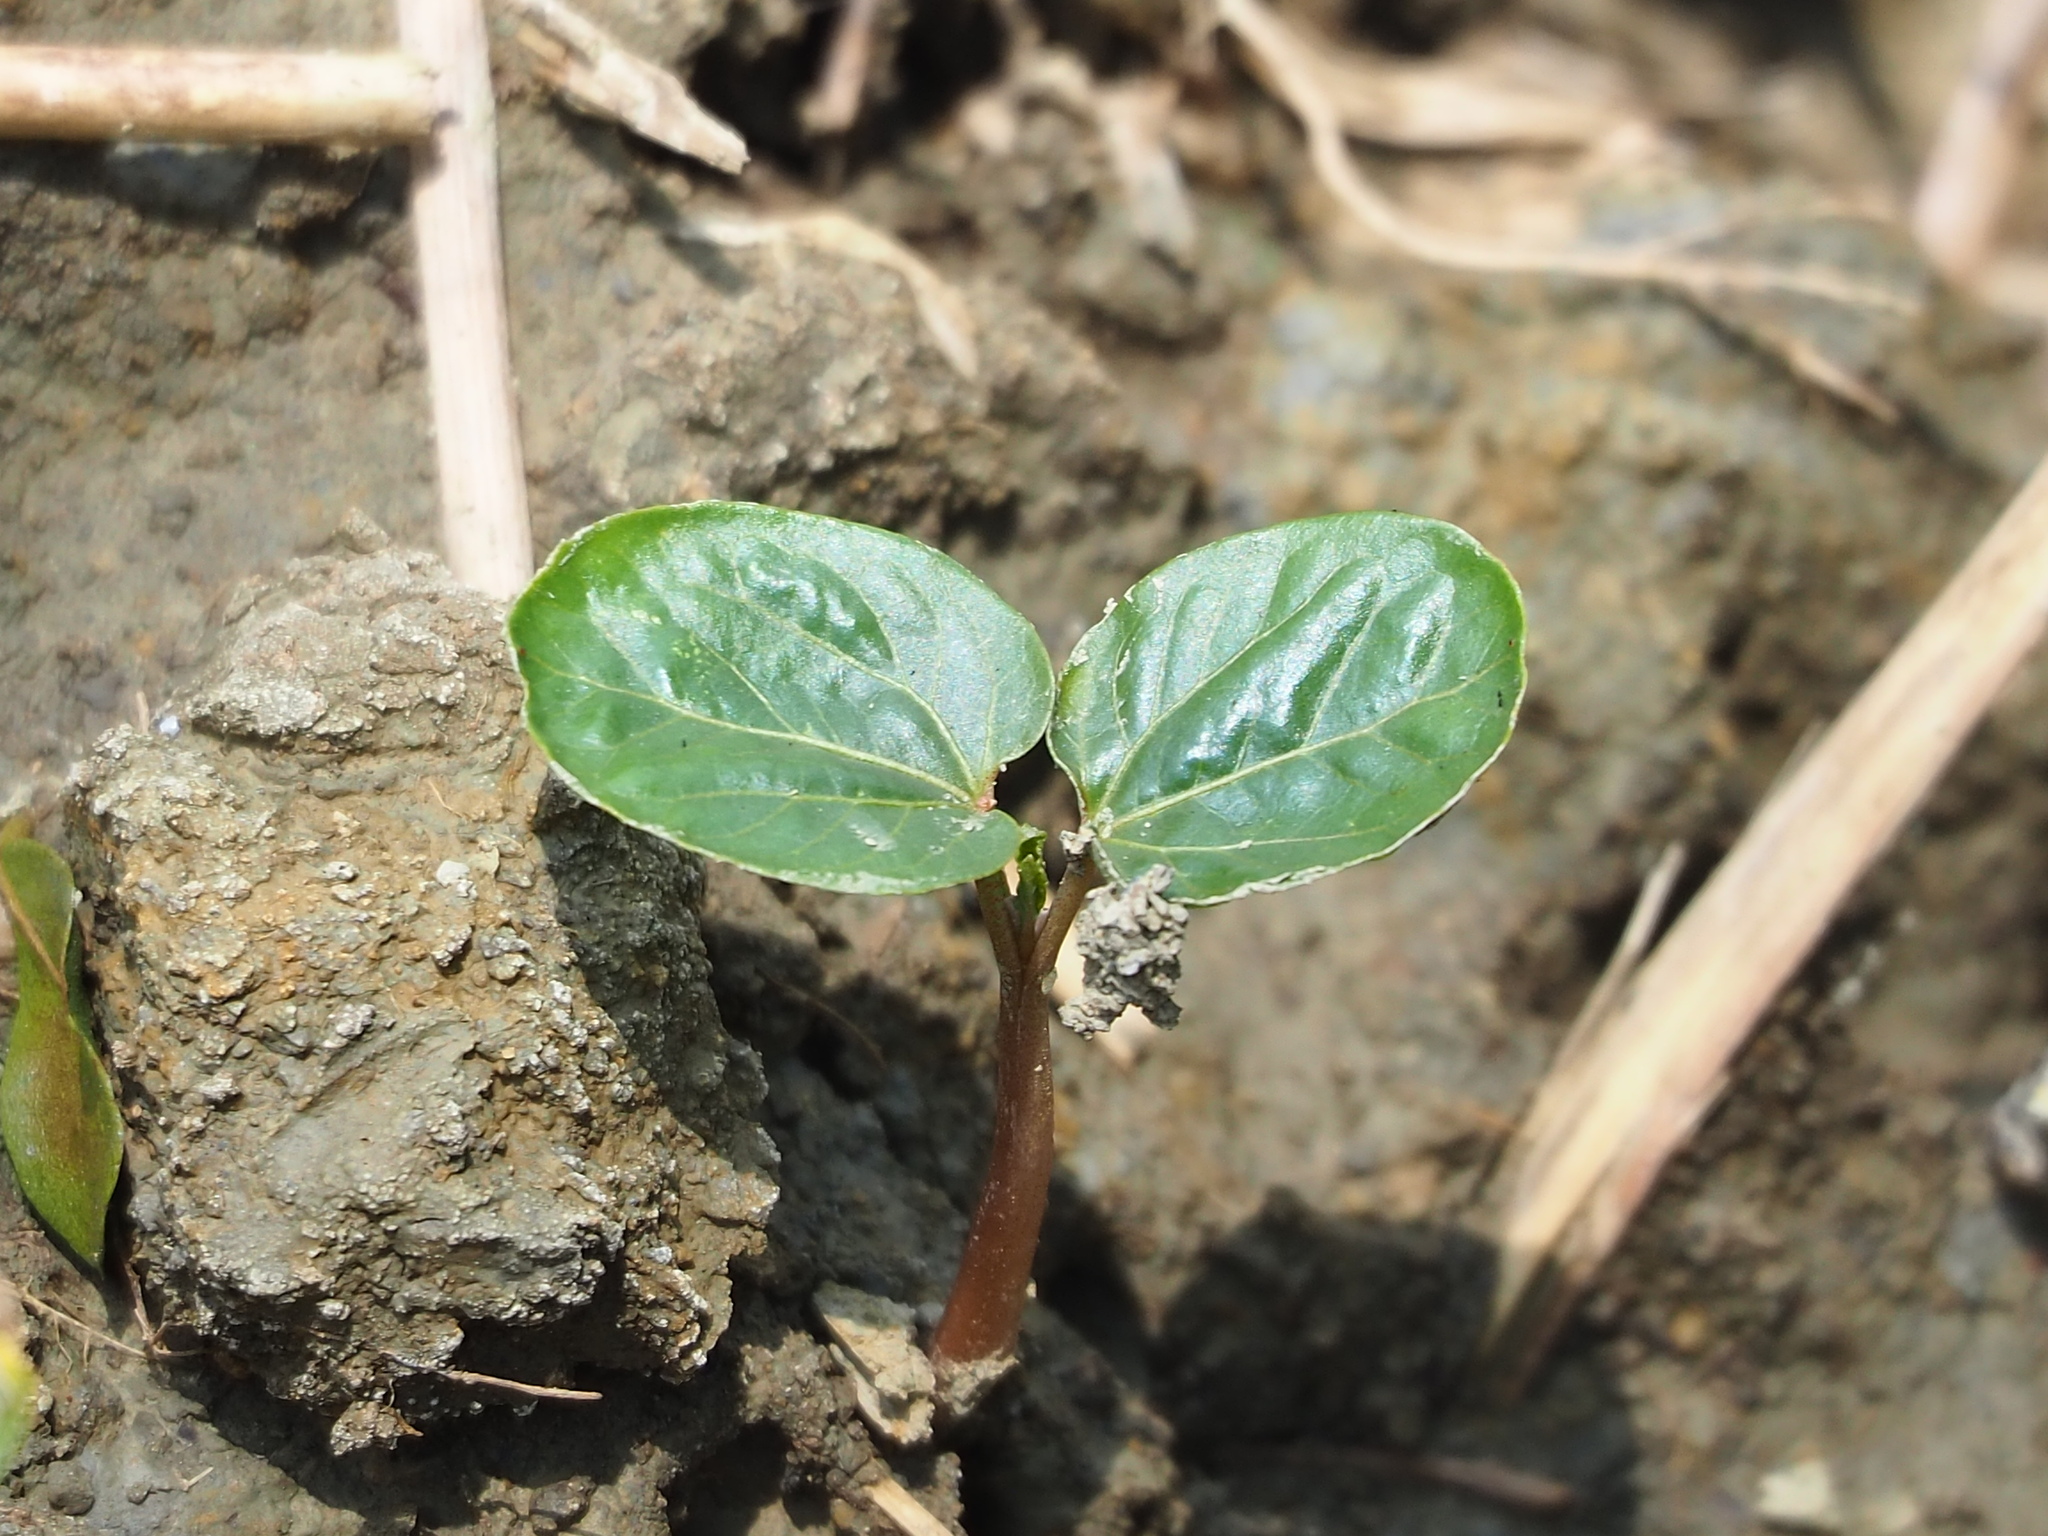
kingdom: Plantae
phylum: Tracheophyta
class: Magnoliopsida
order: Malpighiales
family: Euphorbiaceae
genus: Ricinus
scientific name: Ricinus communis
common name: Castor-oil-plant
